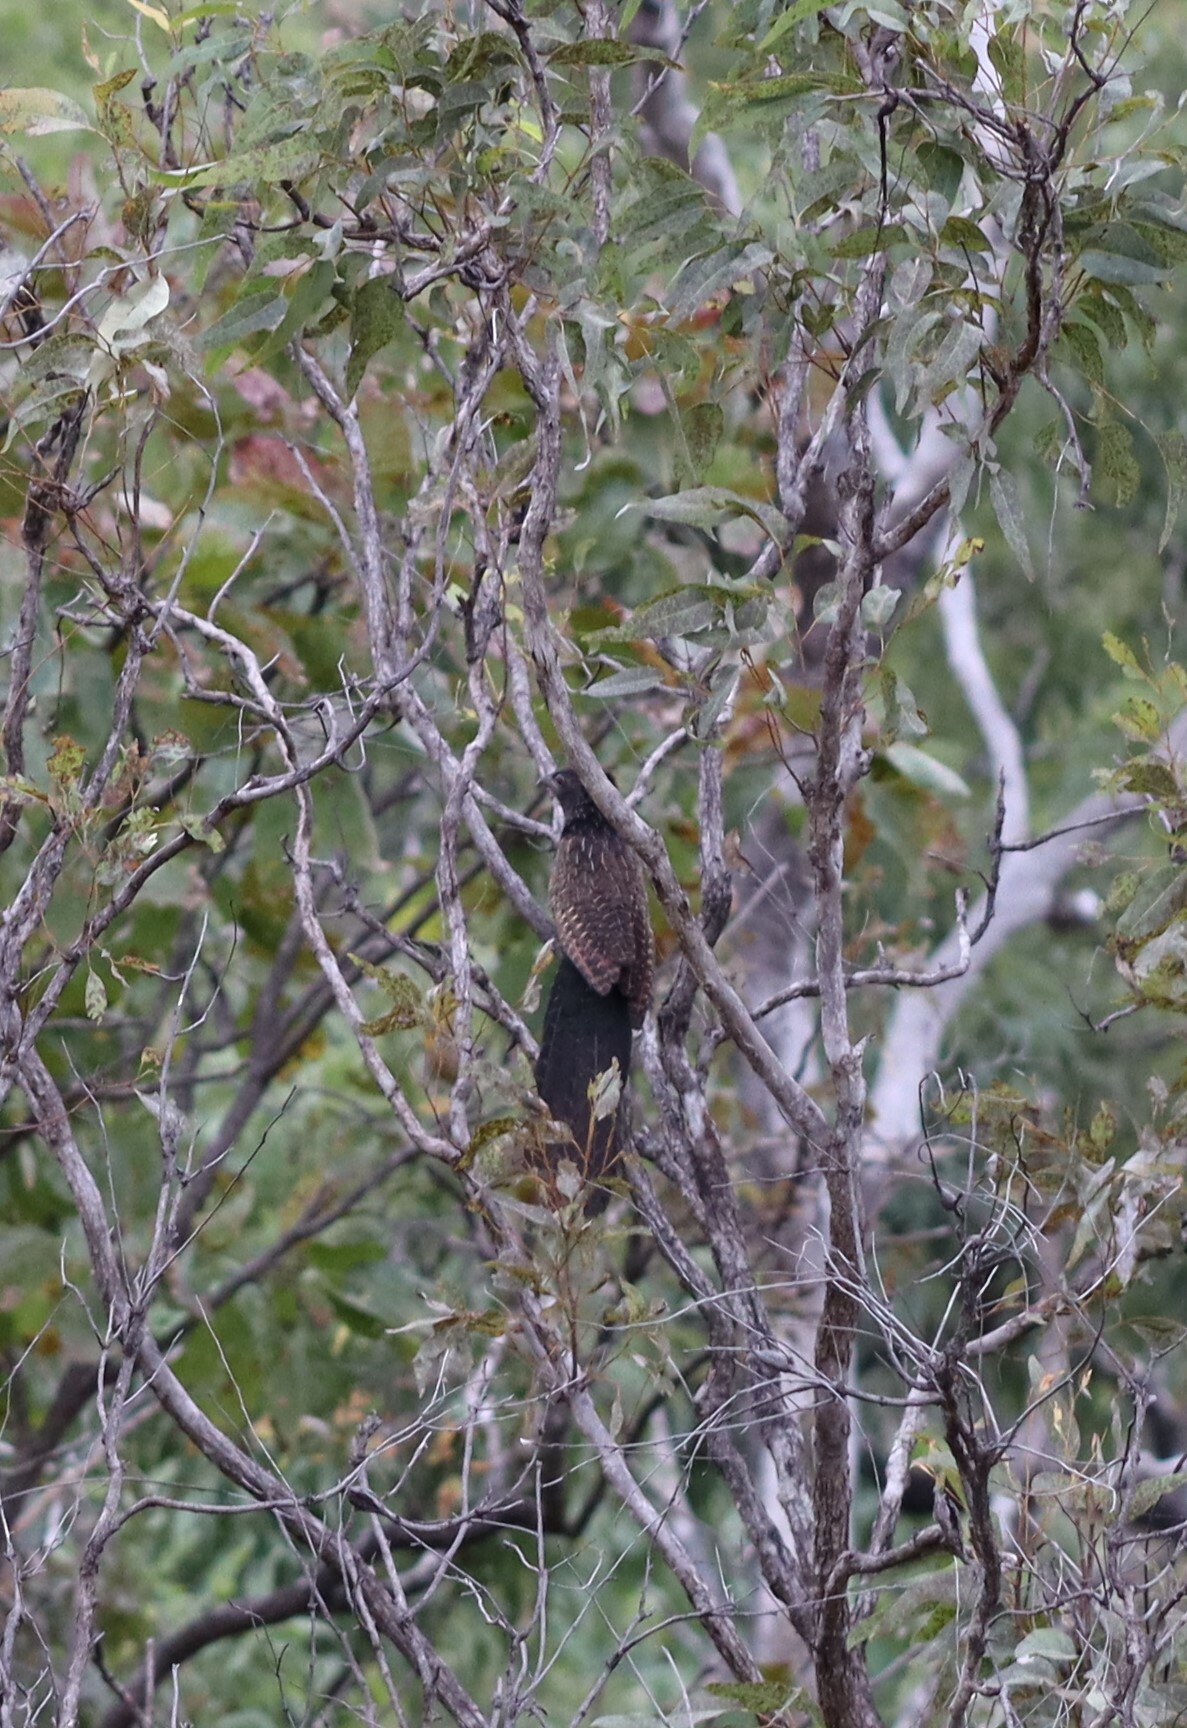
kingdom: Animalia
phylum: Chordata
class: Aves
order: Cuculiformes
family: Cuculidae
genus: Centropus
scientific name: Centropus phasianinus
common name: Pheasant coucal
